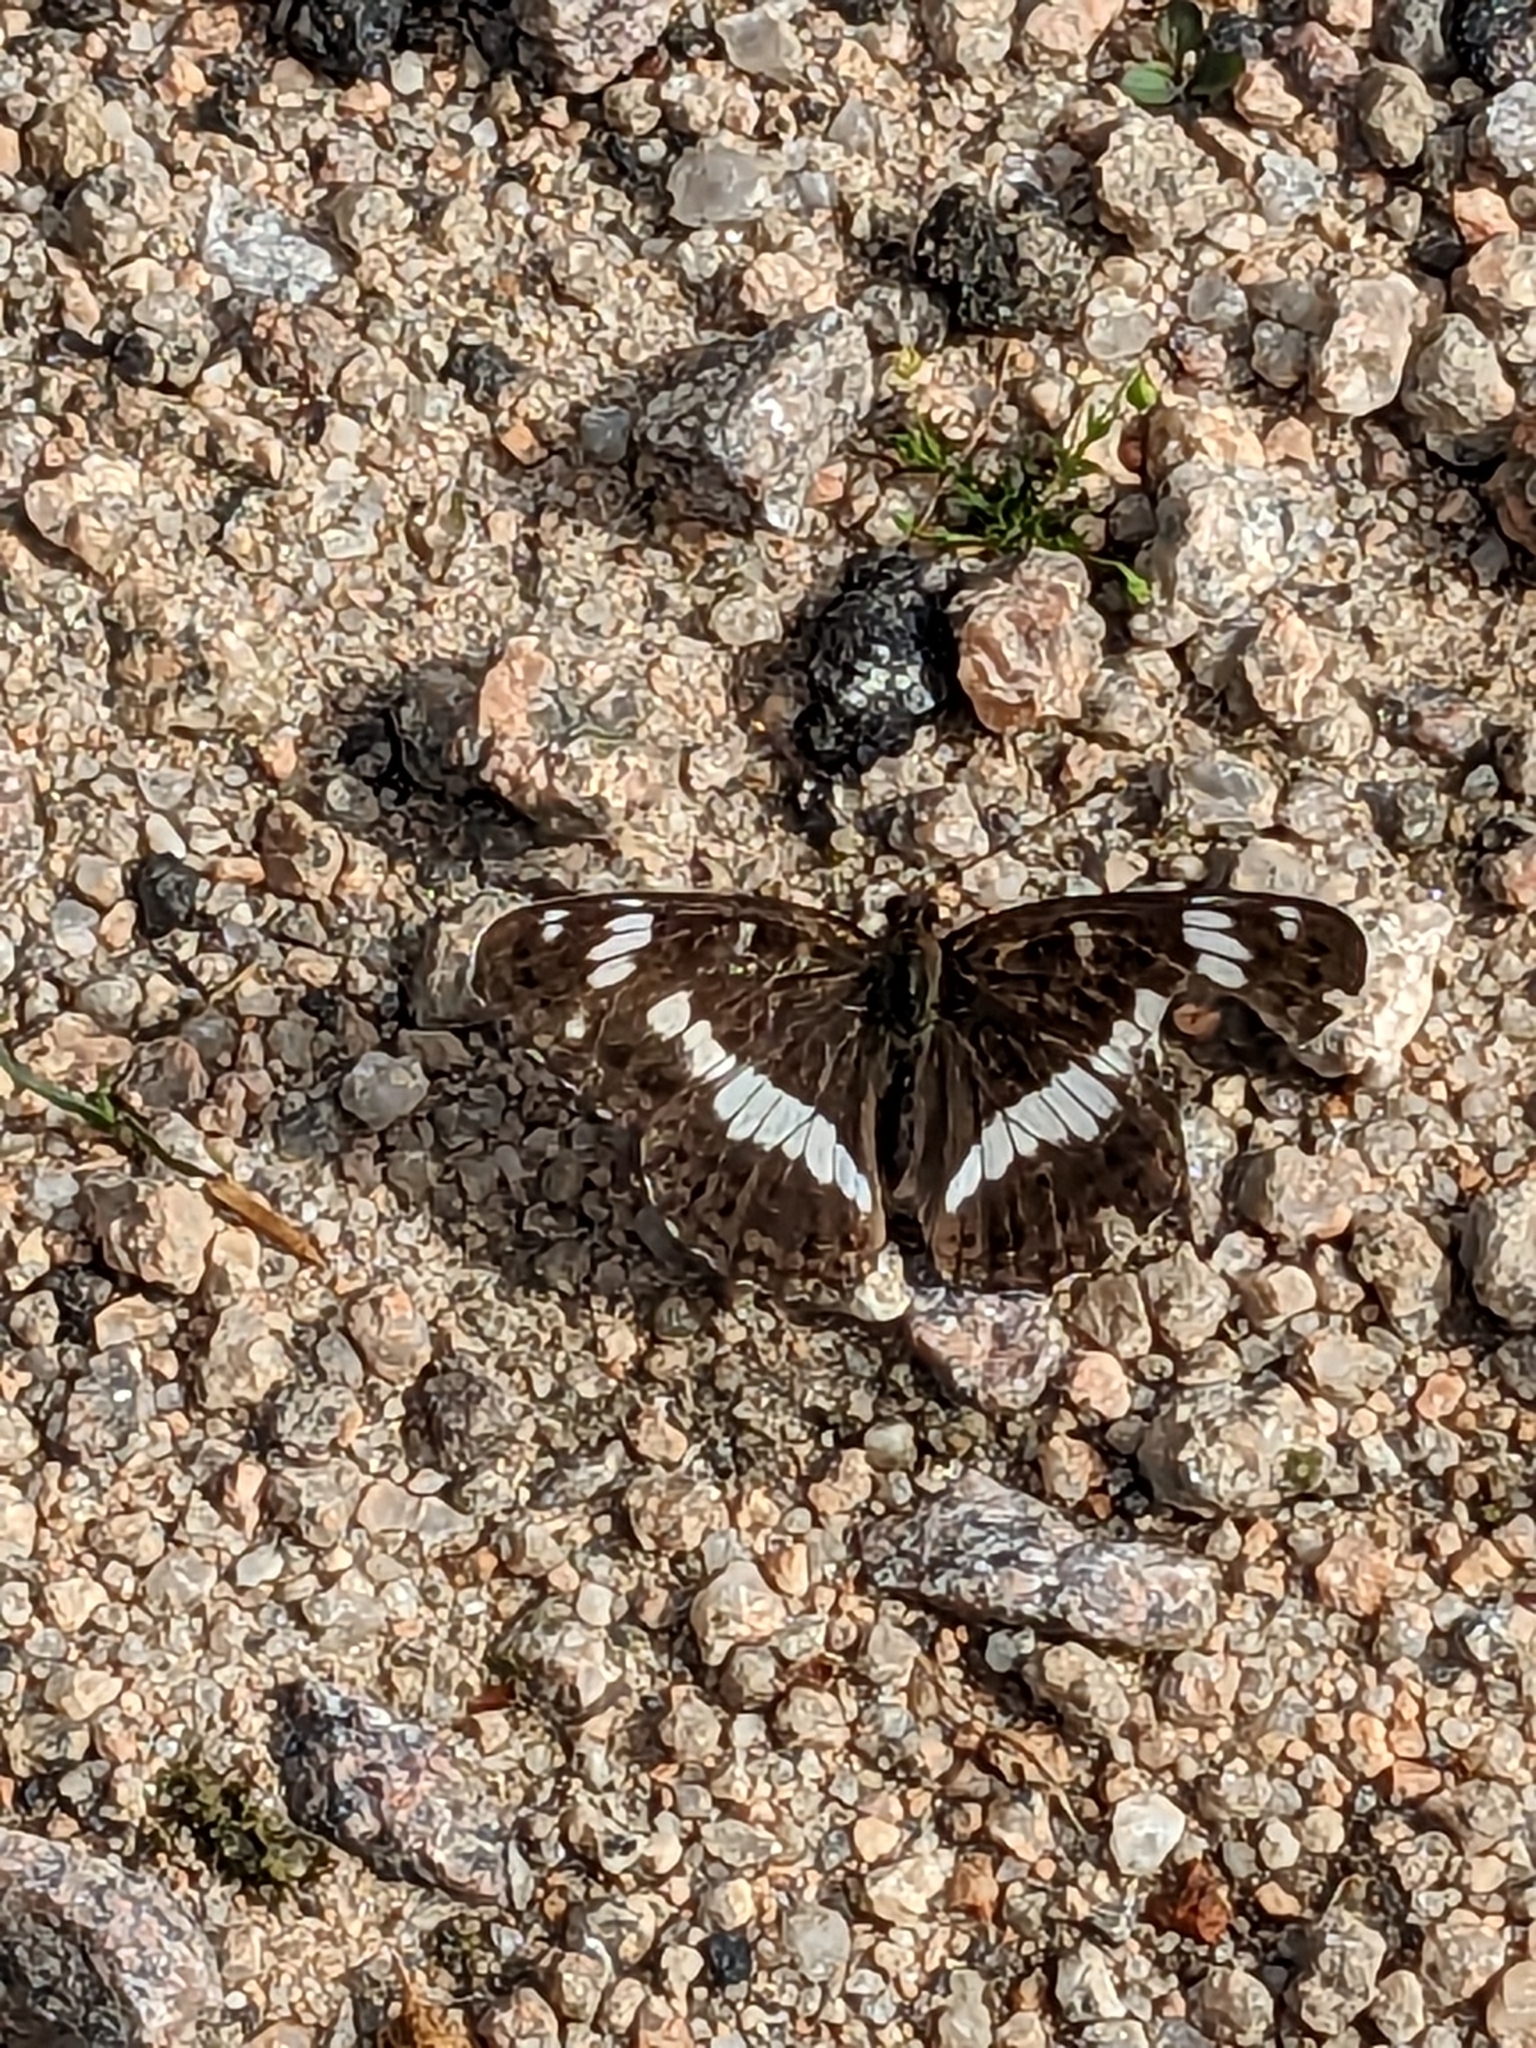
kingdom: Animalia
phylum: Arthropoda
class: Insecta
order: Lepidoptera
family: Nymphalidae
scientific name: Nymphalidae
